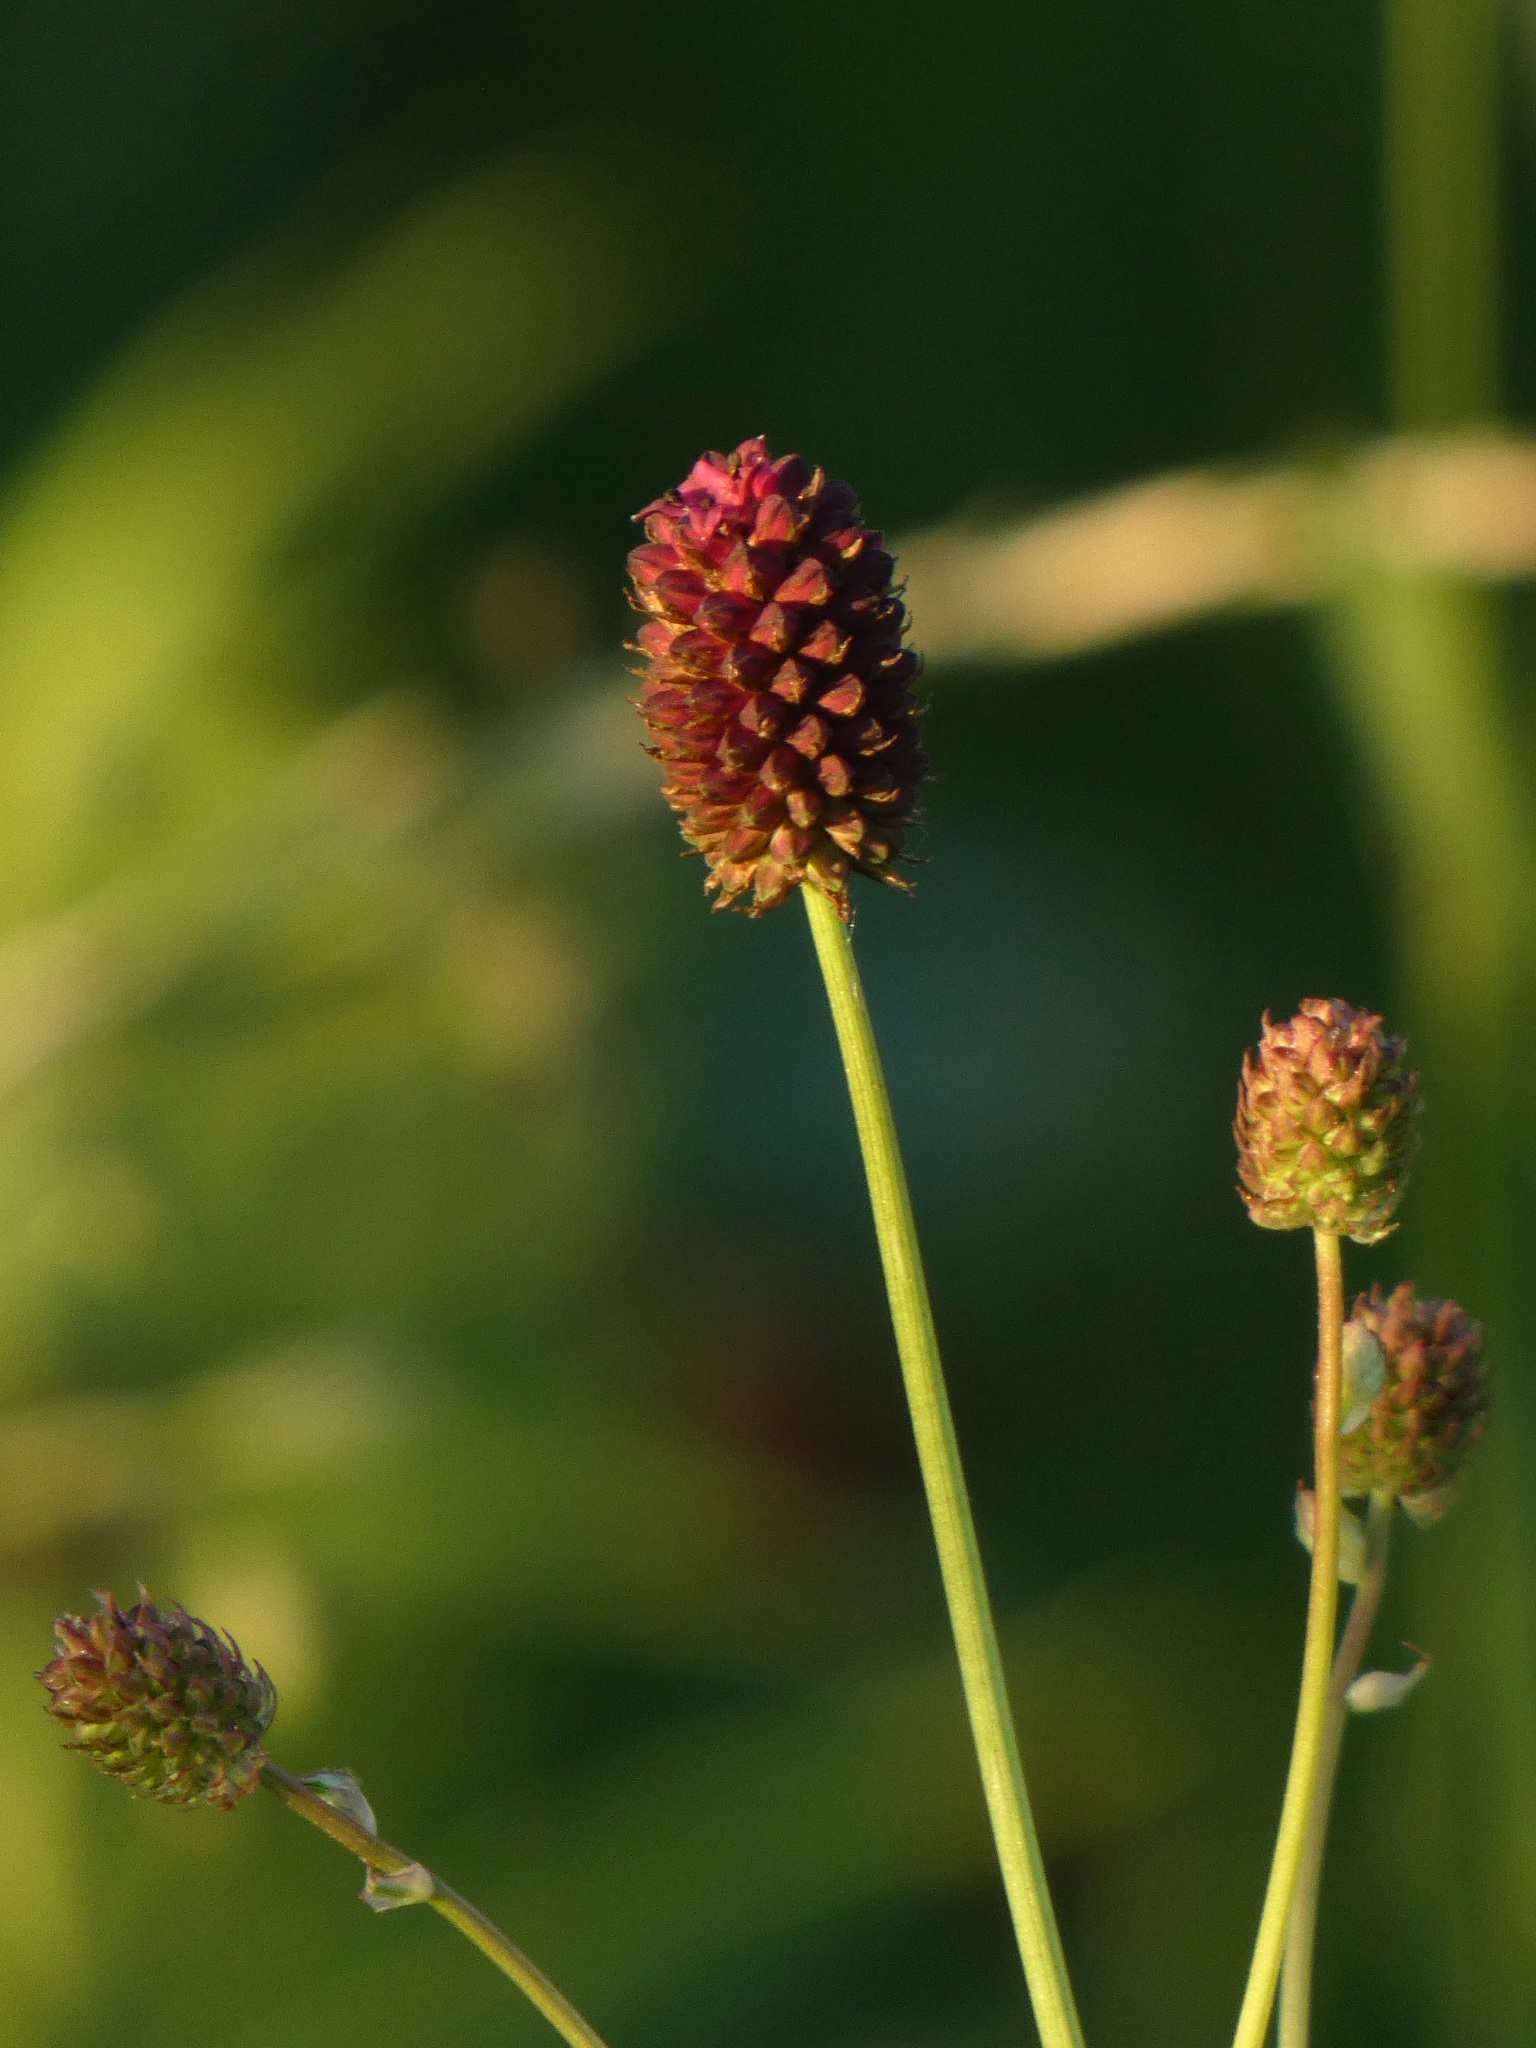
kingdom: Plantae
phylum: Tracheophyta
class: Magnoliopsida
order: Rosales
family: Rosaceae
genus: Sanguisorba
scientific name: Sanguisorba officinalis
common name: Great burnet
